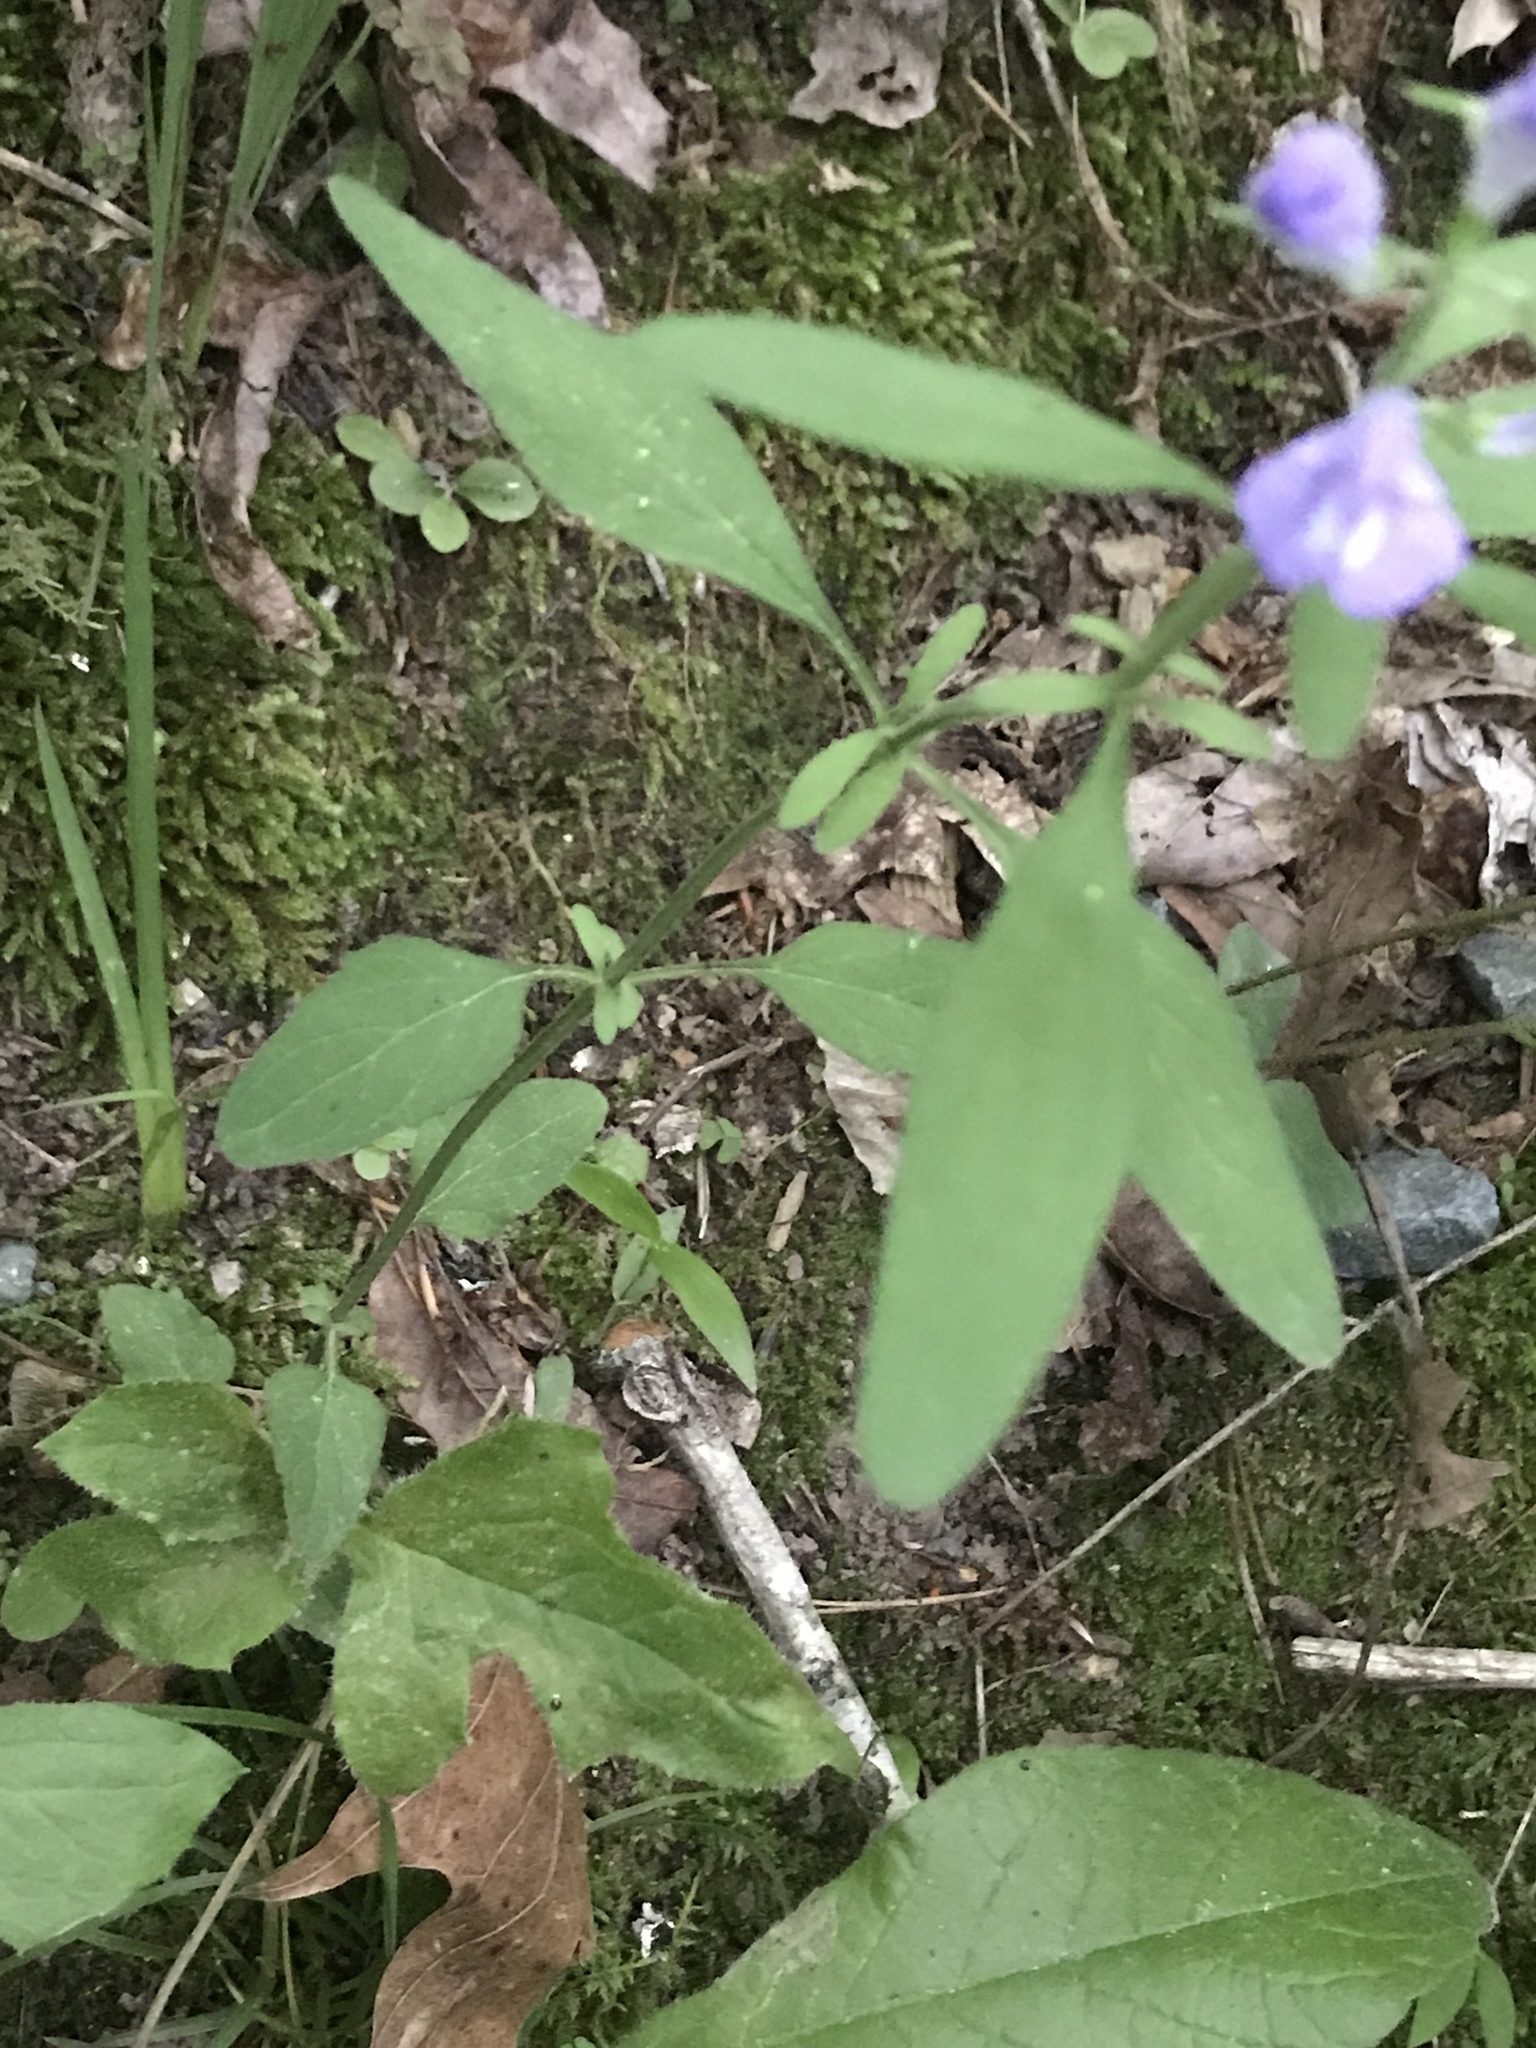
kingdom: Plantae
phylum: Tracheophyta
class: Magnoliopsida
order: Lamiales
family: Lamiaceae
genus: Scutellaria
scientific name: Scutellaria integrifolia
